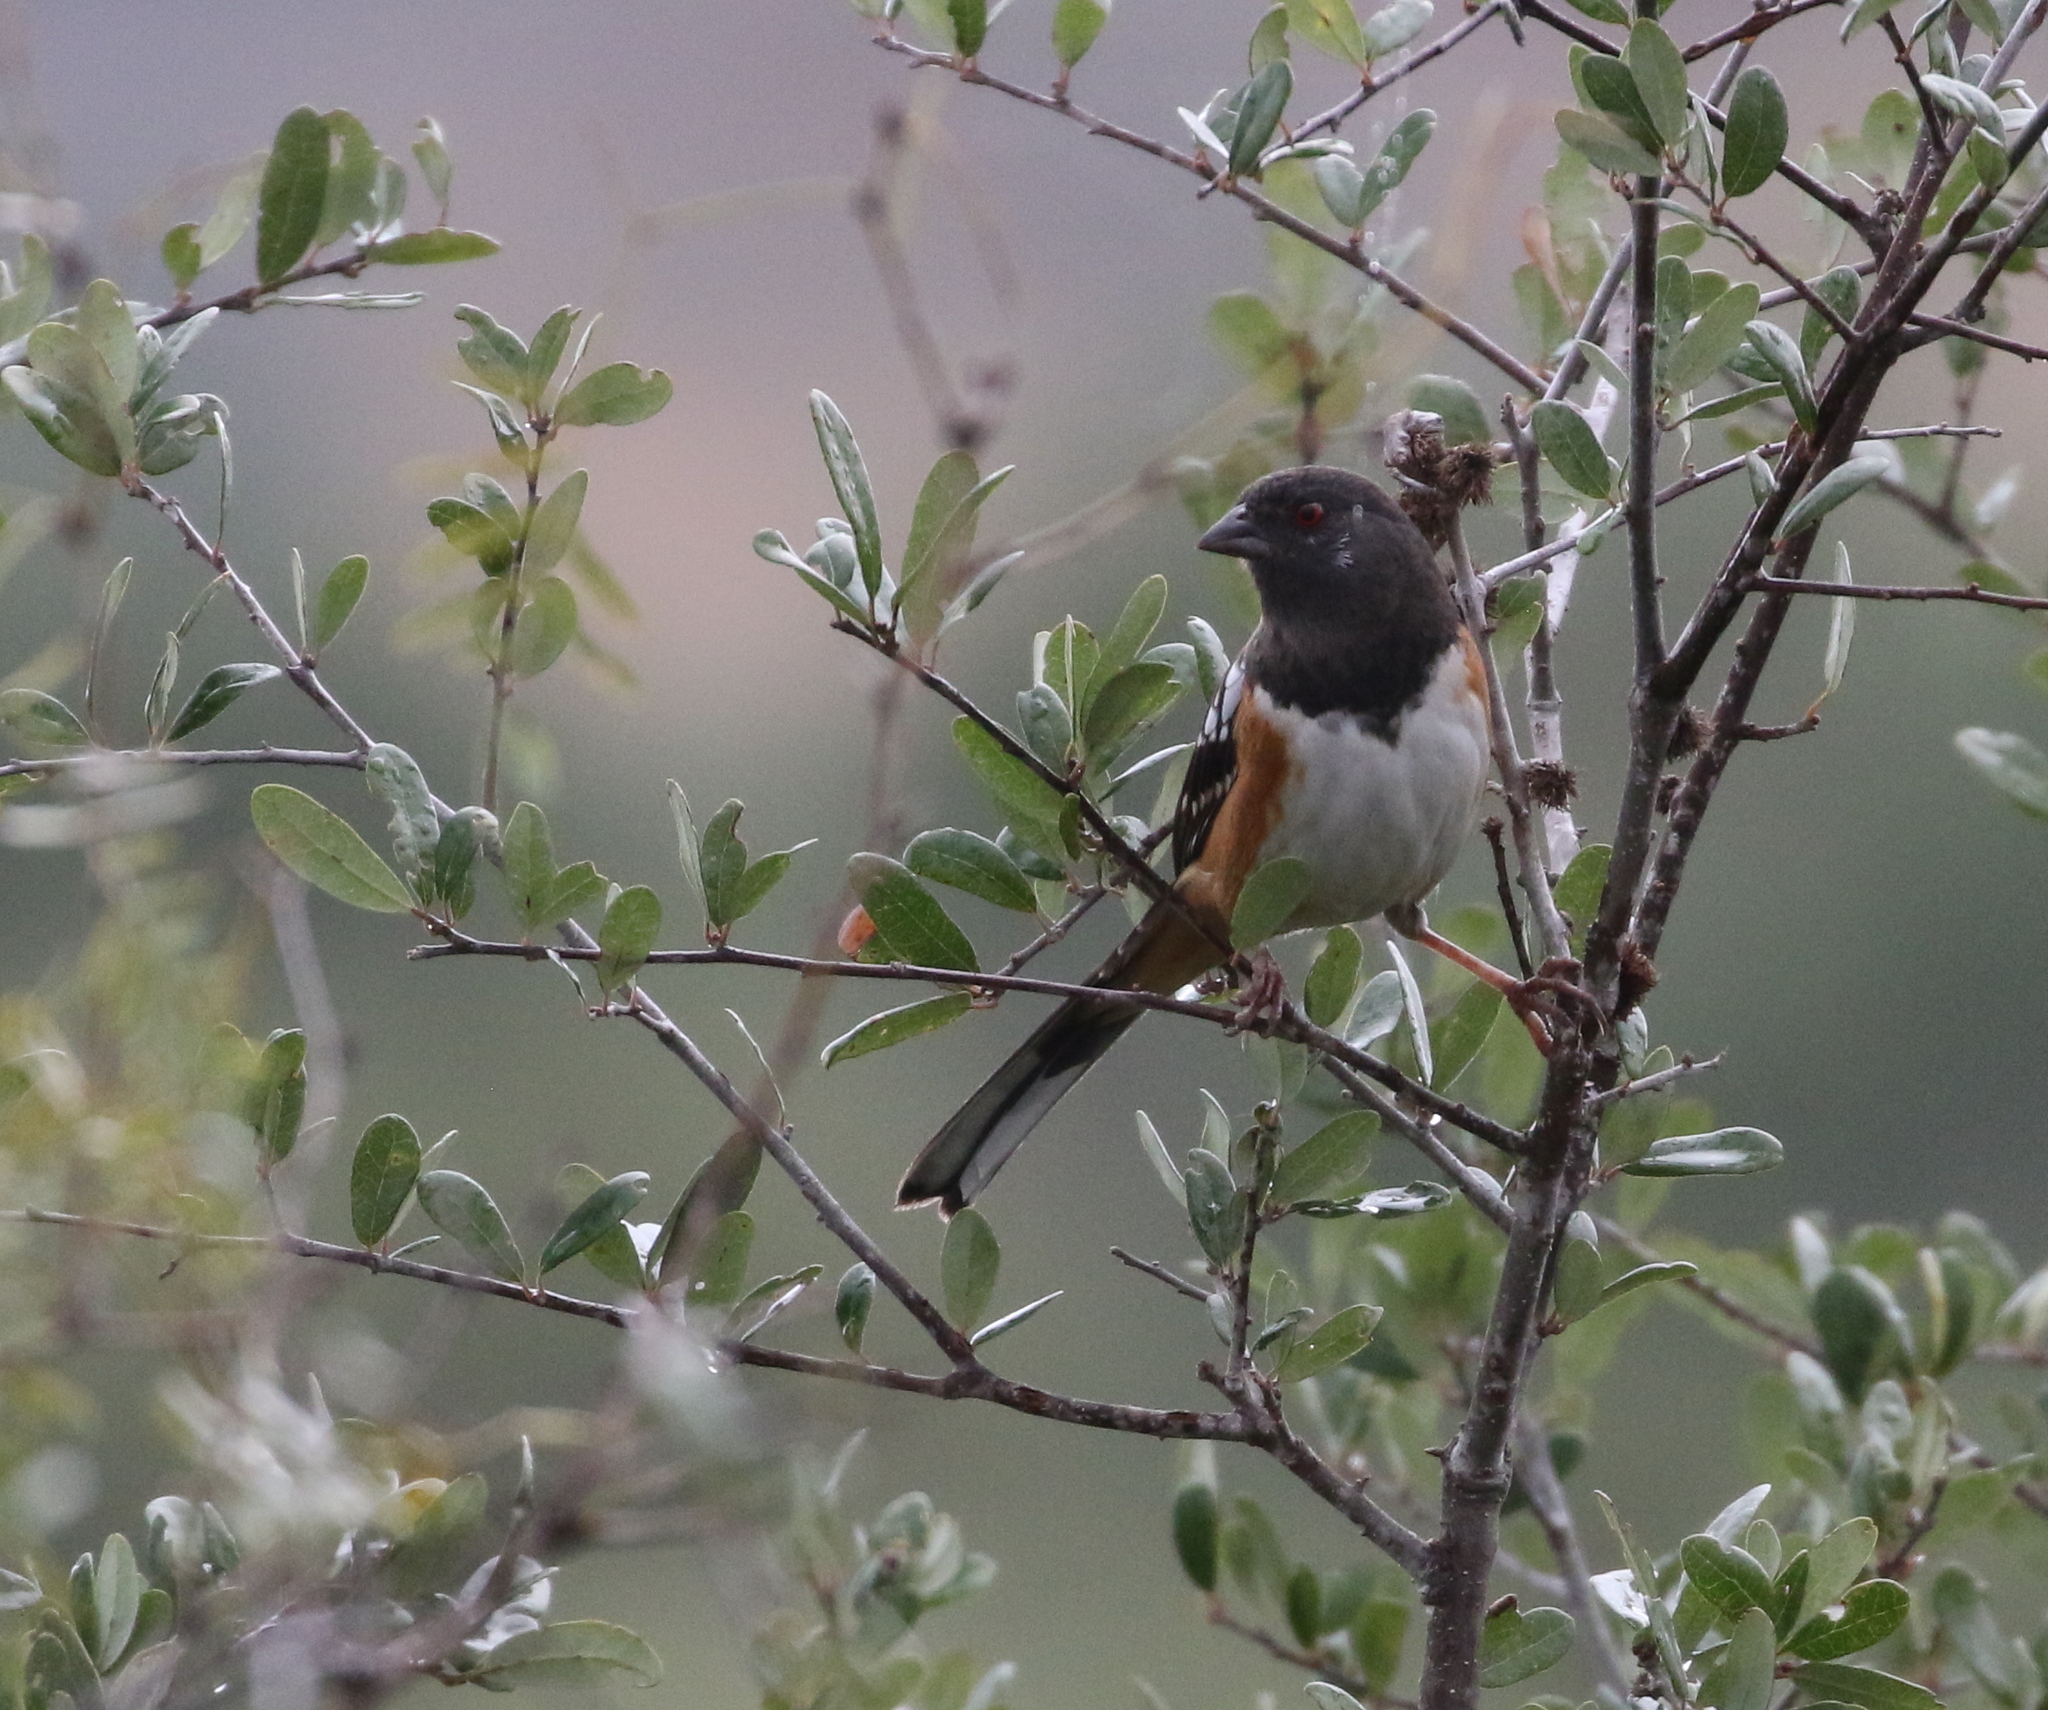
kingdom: Animalia
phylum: Chordata
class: Aves
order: Passeriformes
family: Passerellidae
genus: Pipilo
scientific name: Pipilo maculatus
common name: Spotted towhee
